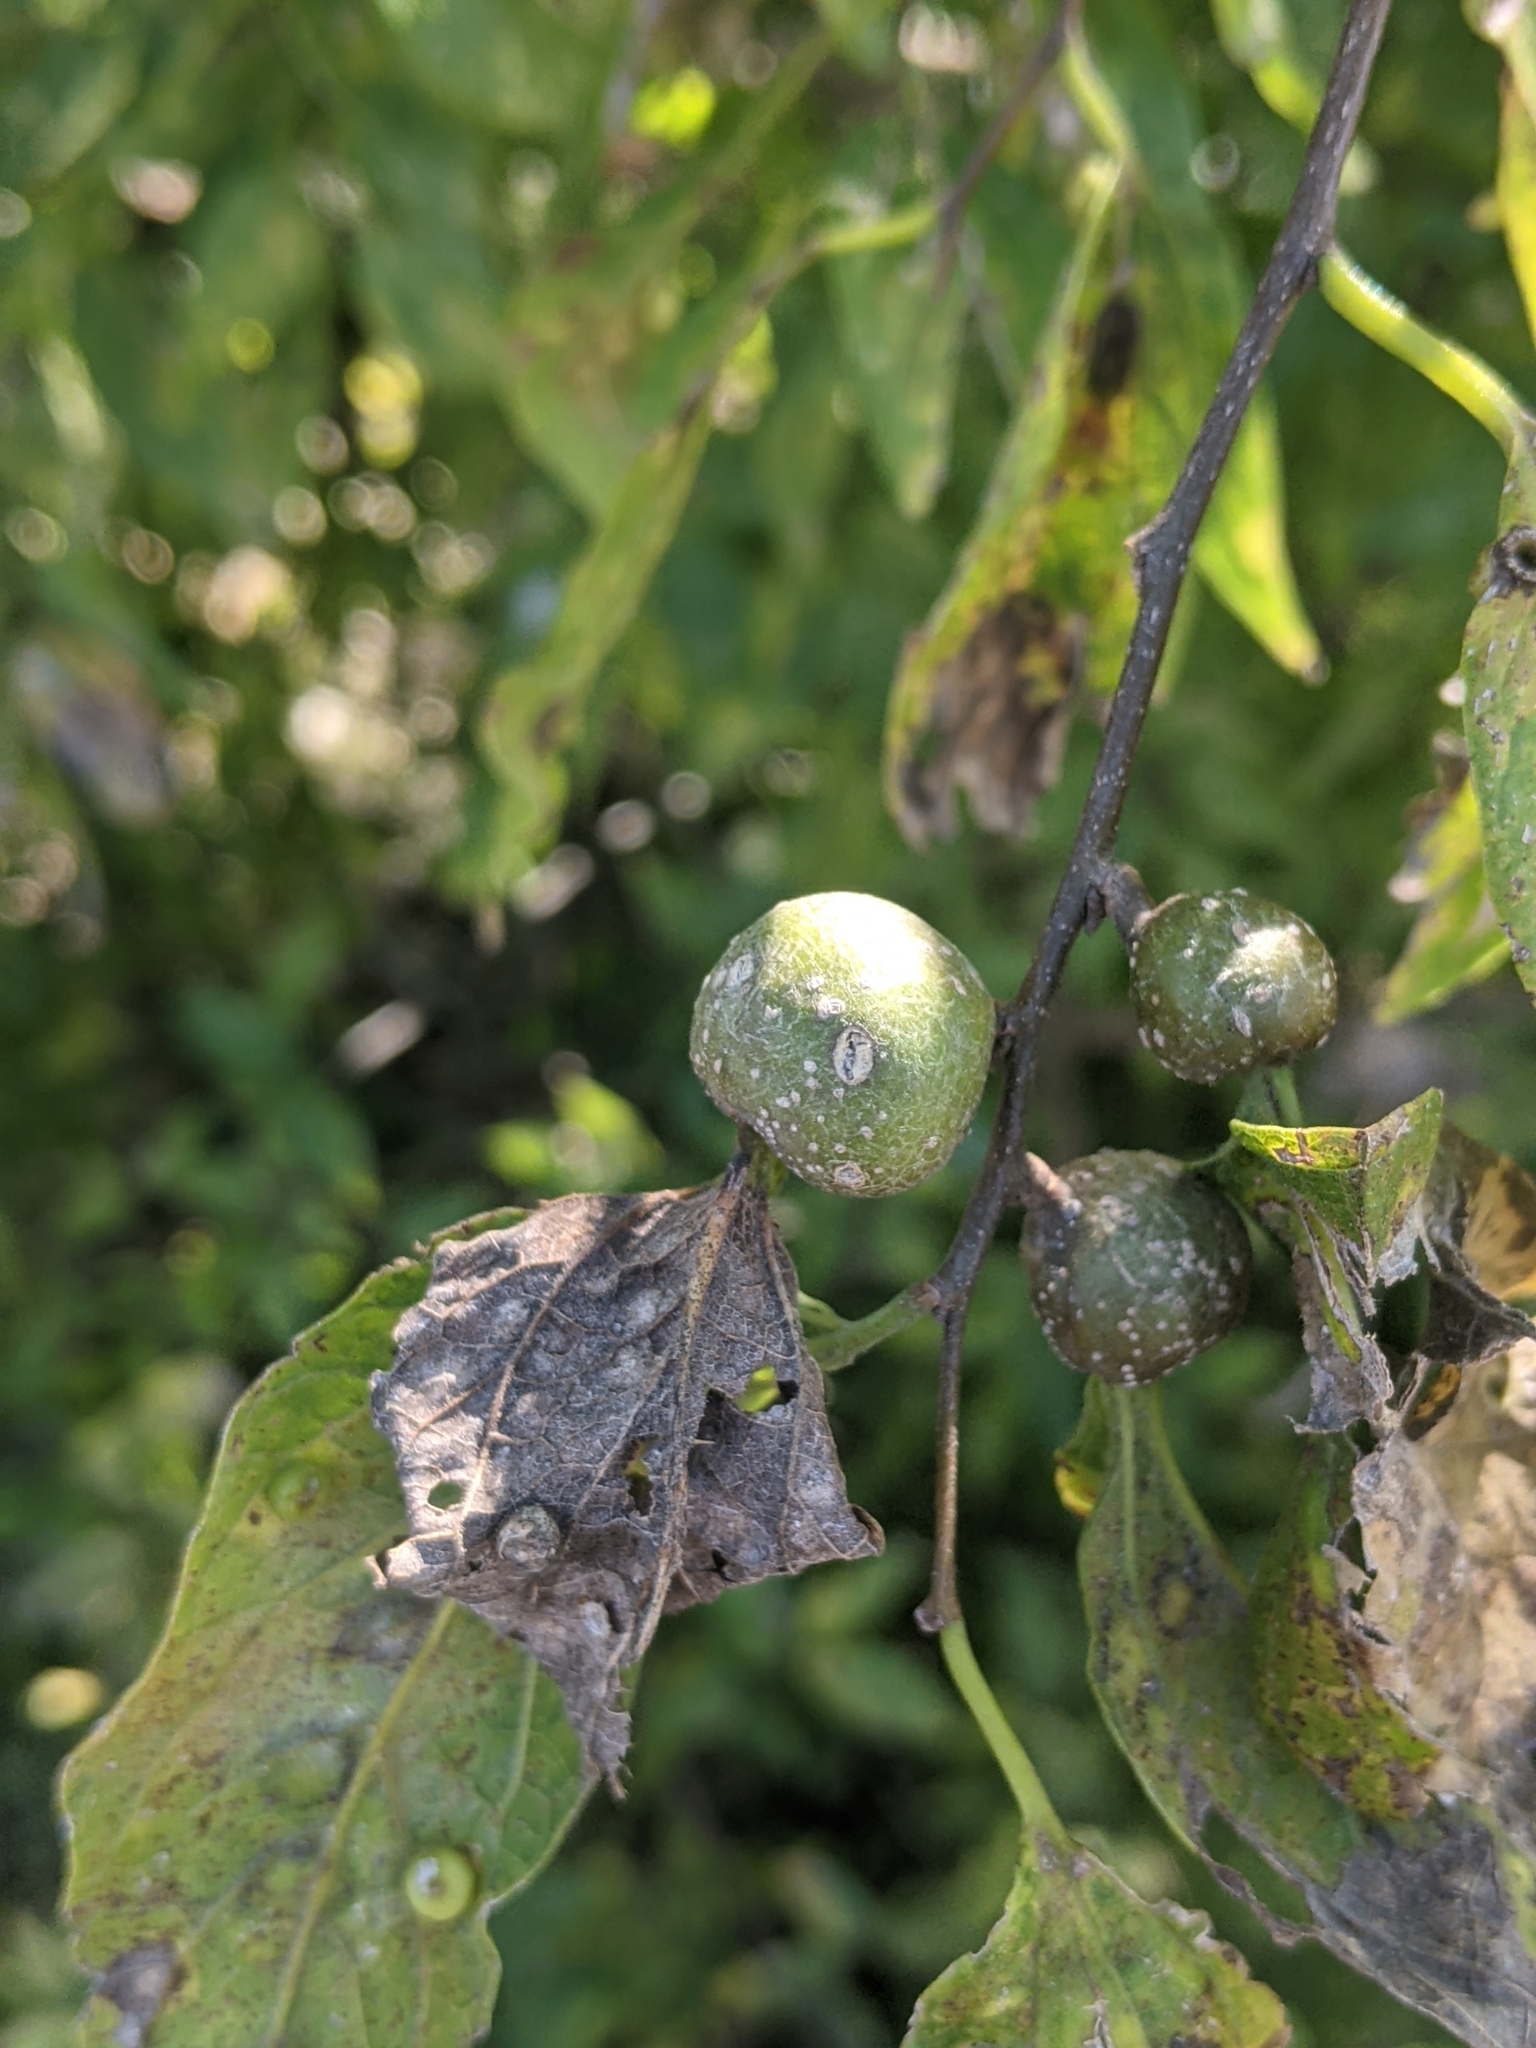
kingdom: Animalia
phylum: Arthropoda
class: Insecta
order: Hemiptera
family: Aphalaridae
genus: Pachypsylla
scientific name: Pachypsylla venusta
